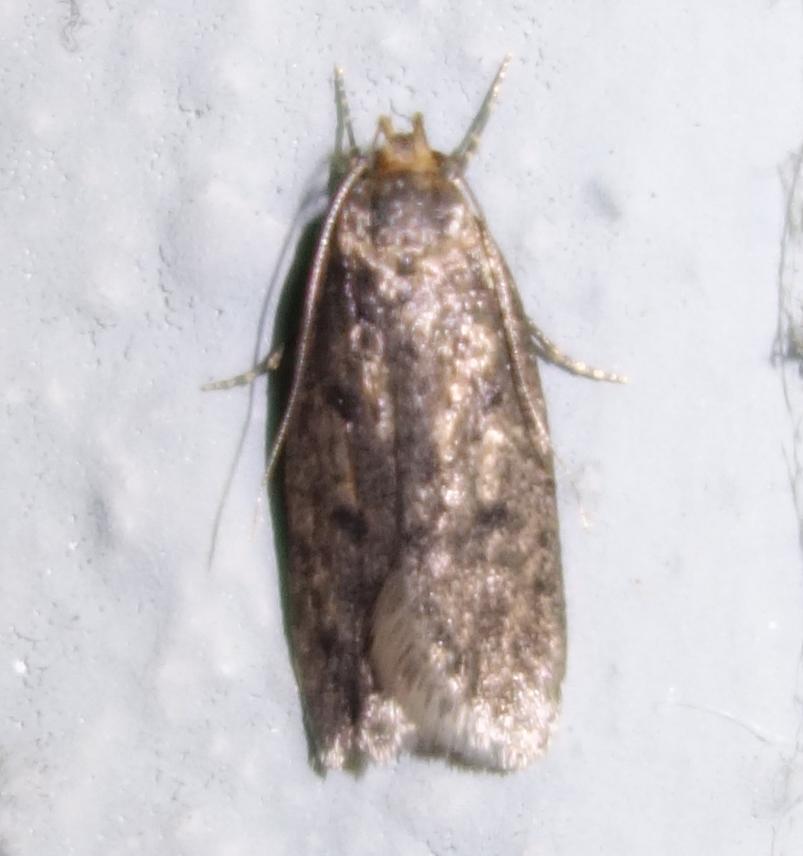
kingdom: Animalia
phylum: Arthropoda
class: Insecta
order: Lepidoptera
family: Oecophoridae
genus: Hofmannophila
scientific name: Hofmannophila pseudospretella
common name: Brown house moth
